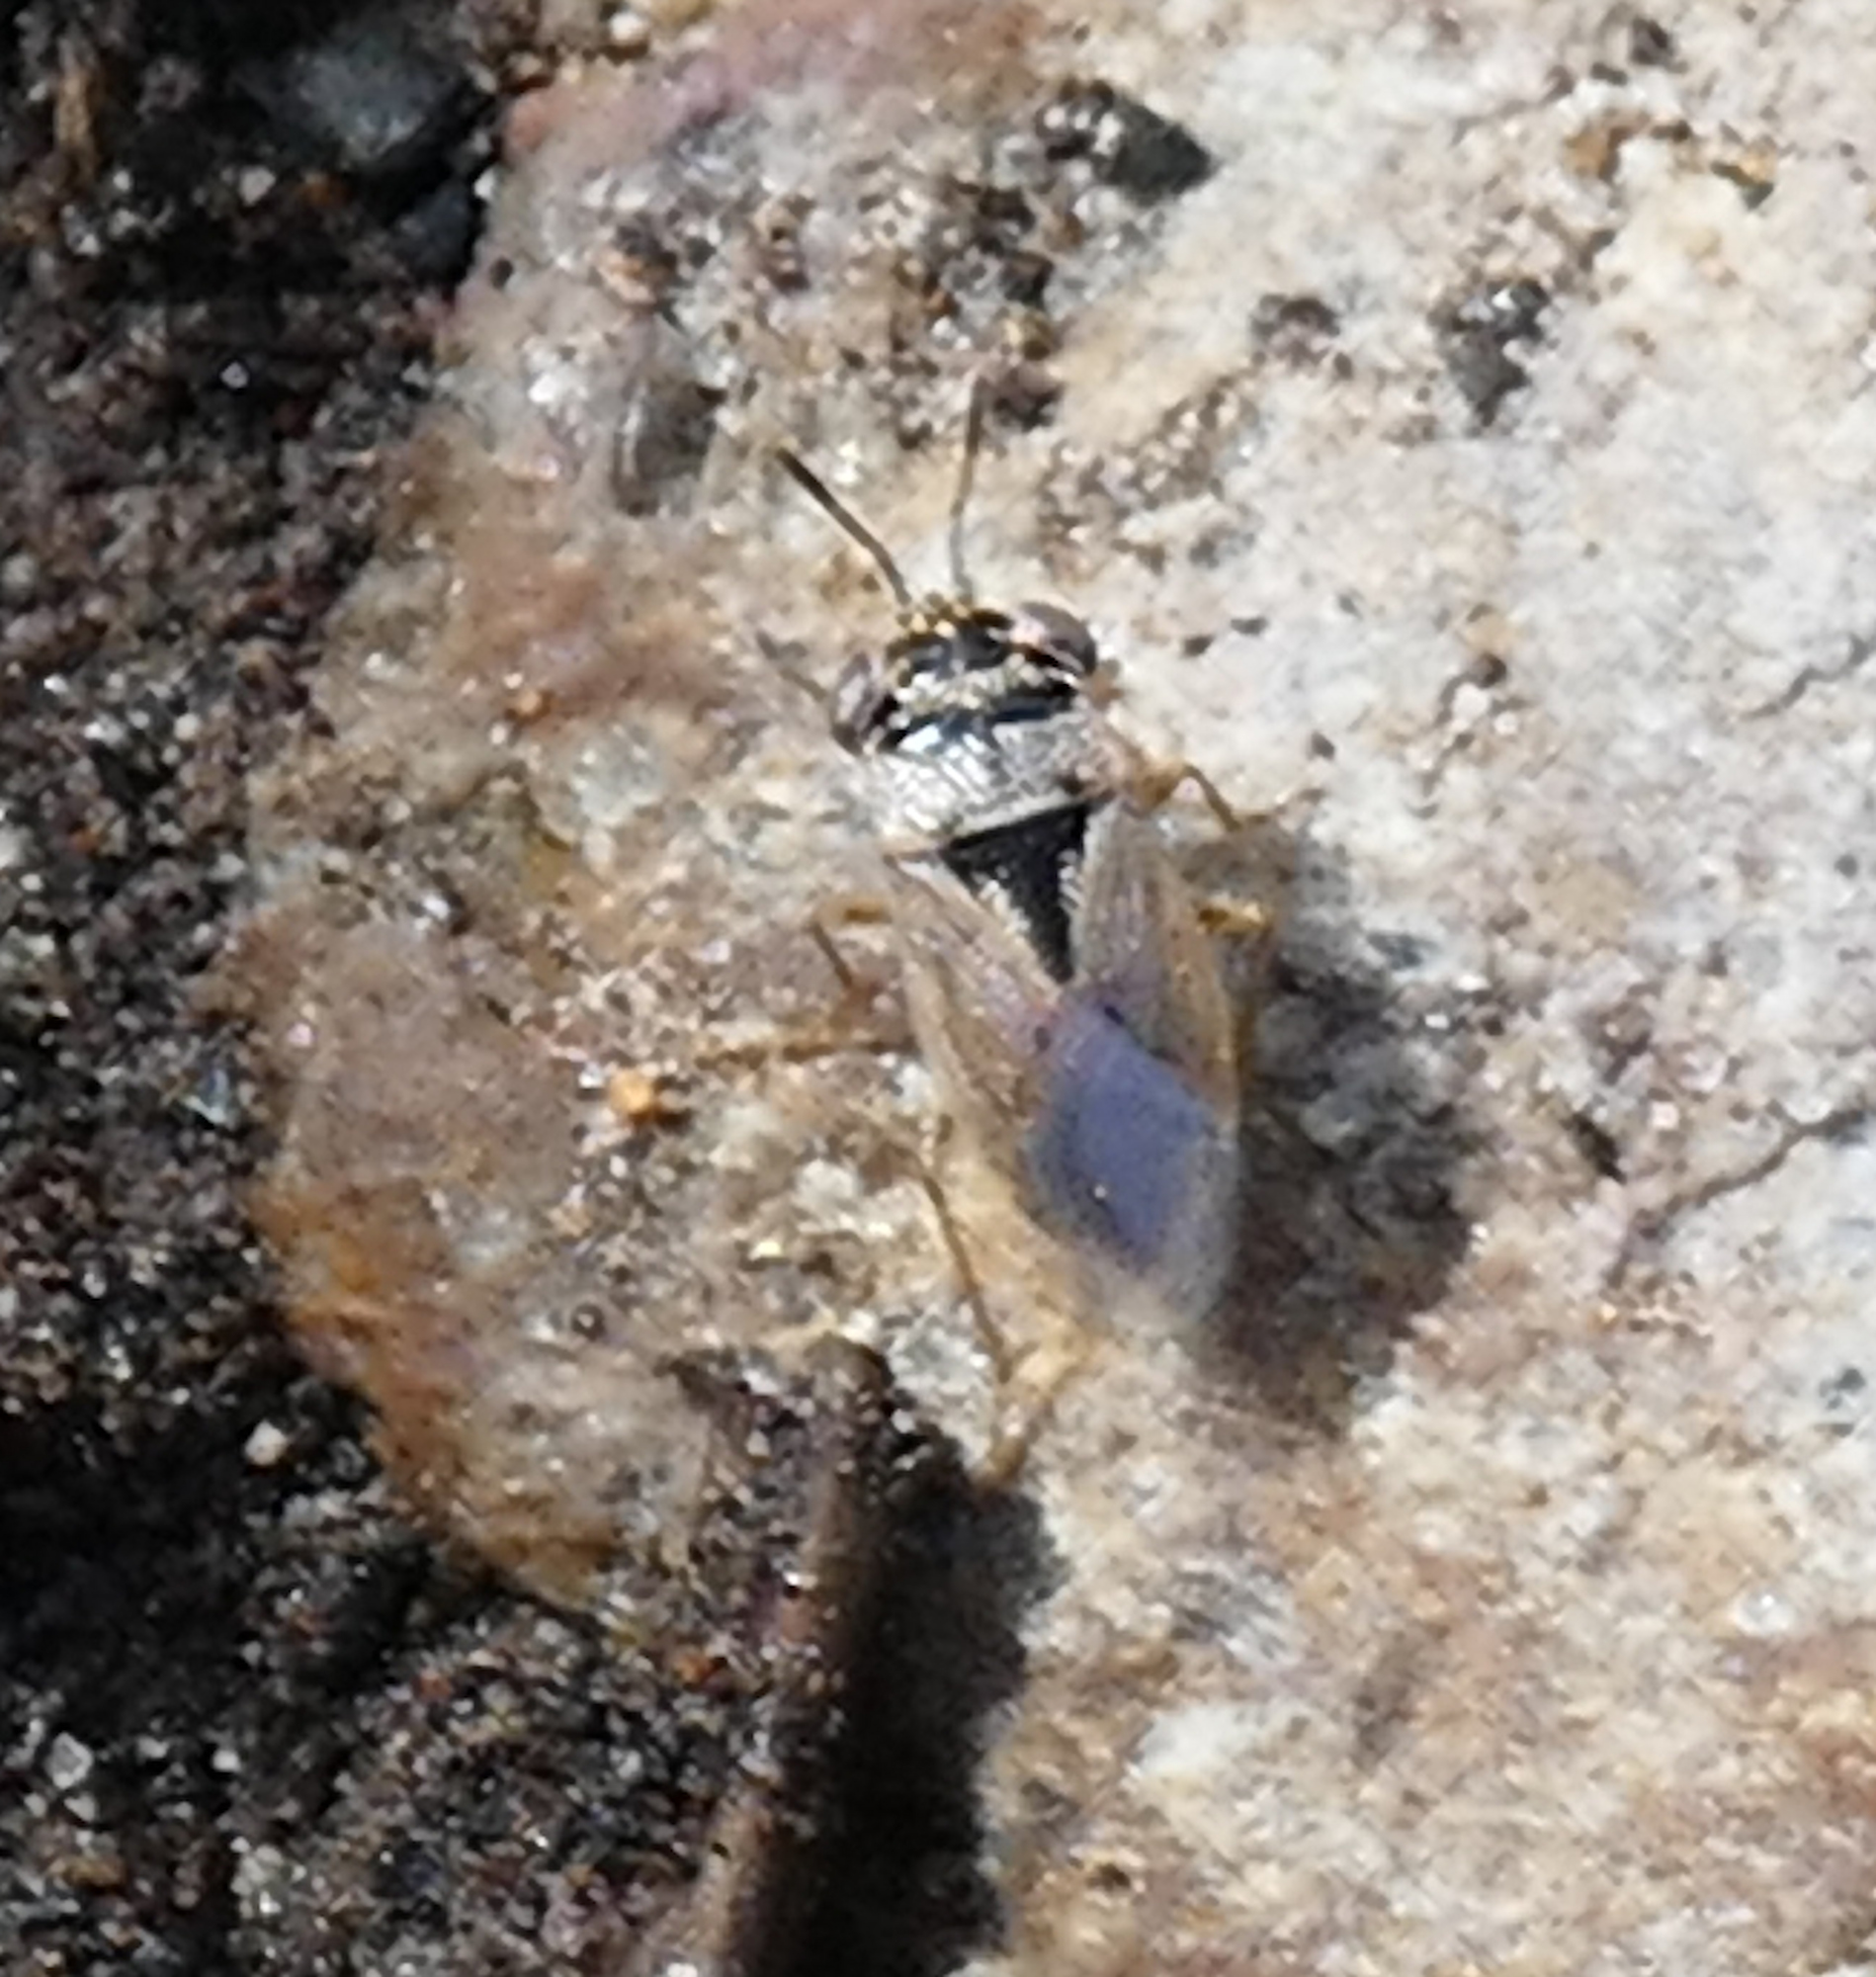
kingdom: Animalia
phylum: Arthropoda
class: Insecta
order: Hemiptera
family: Geocoridae
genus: Geocoris
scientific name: Geocoris pallens
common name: Big-eyed bug
